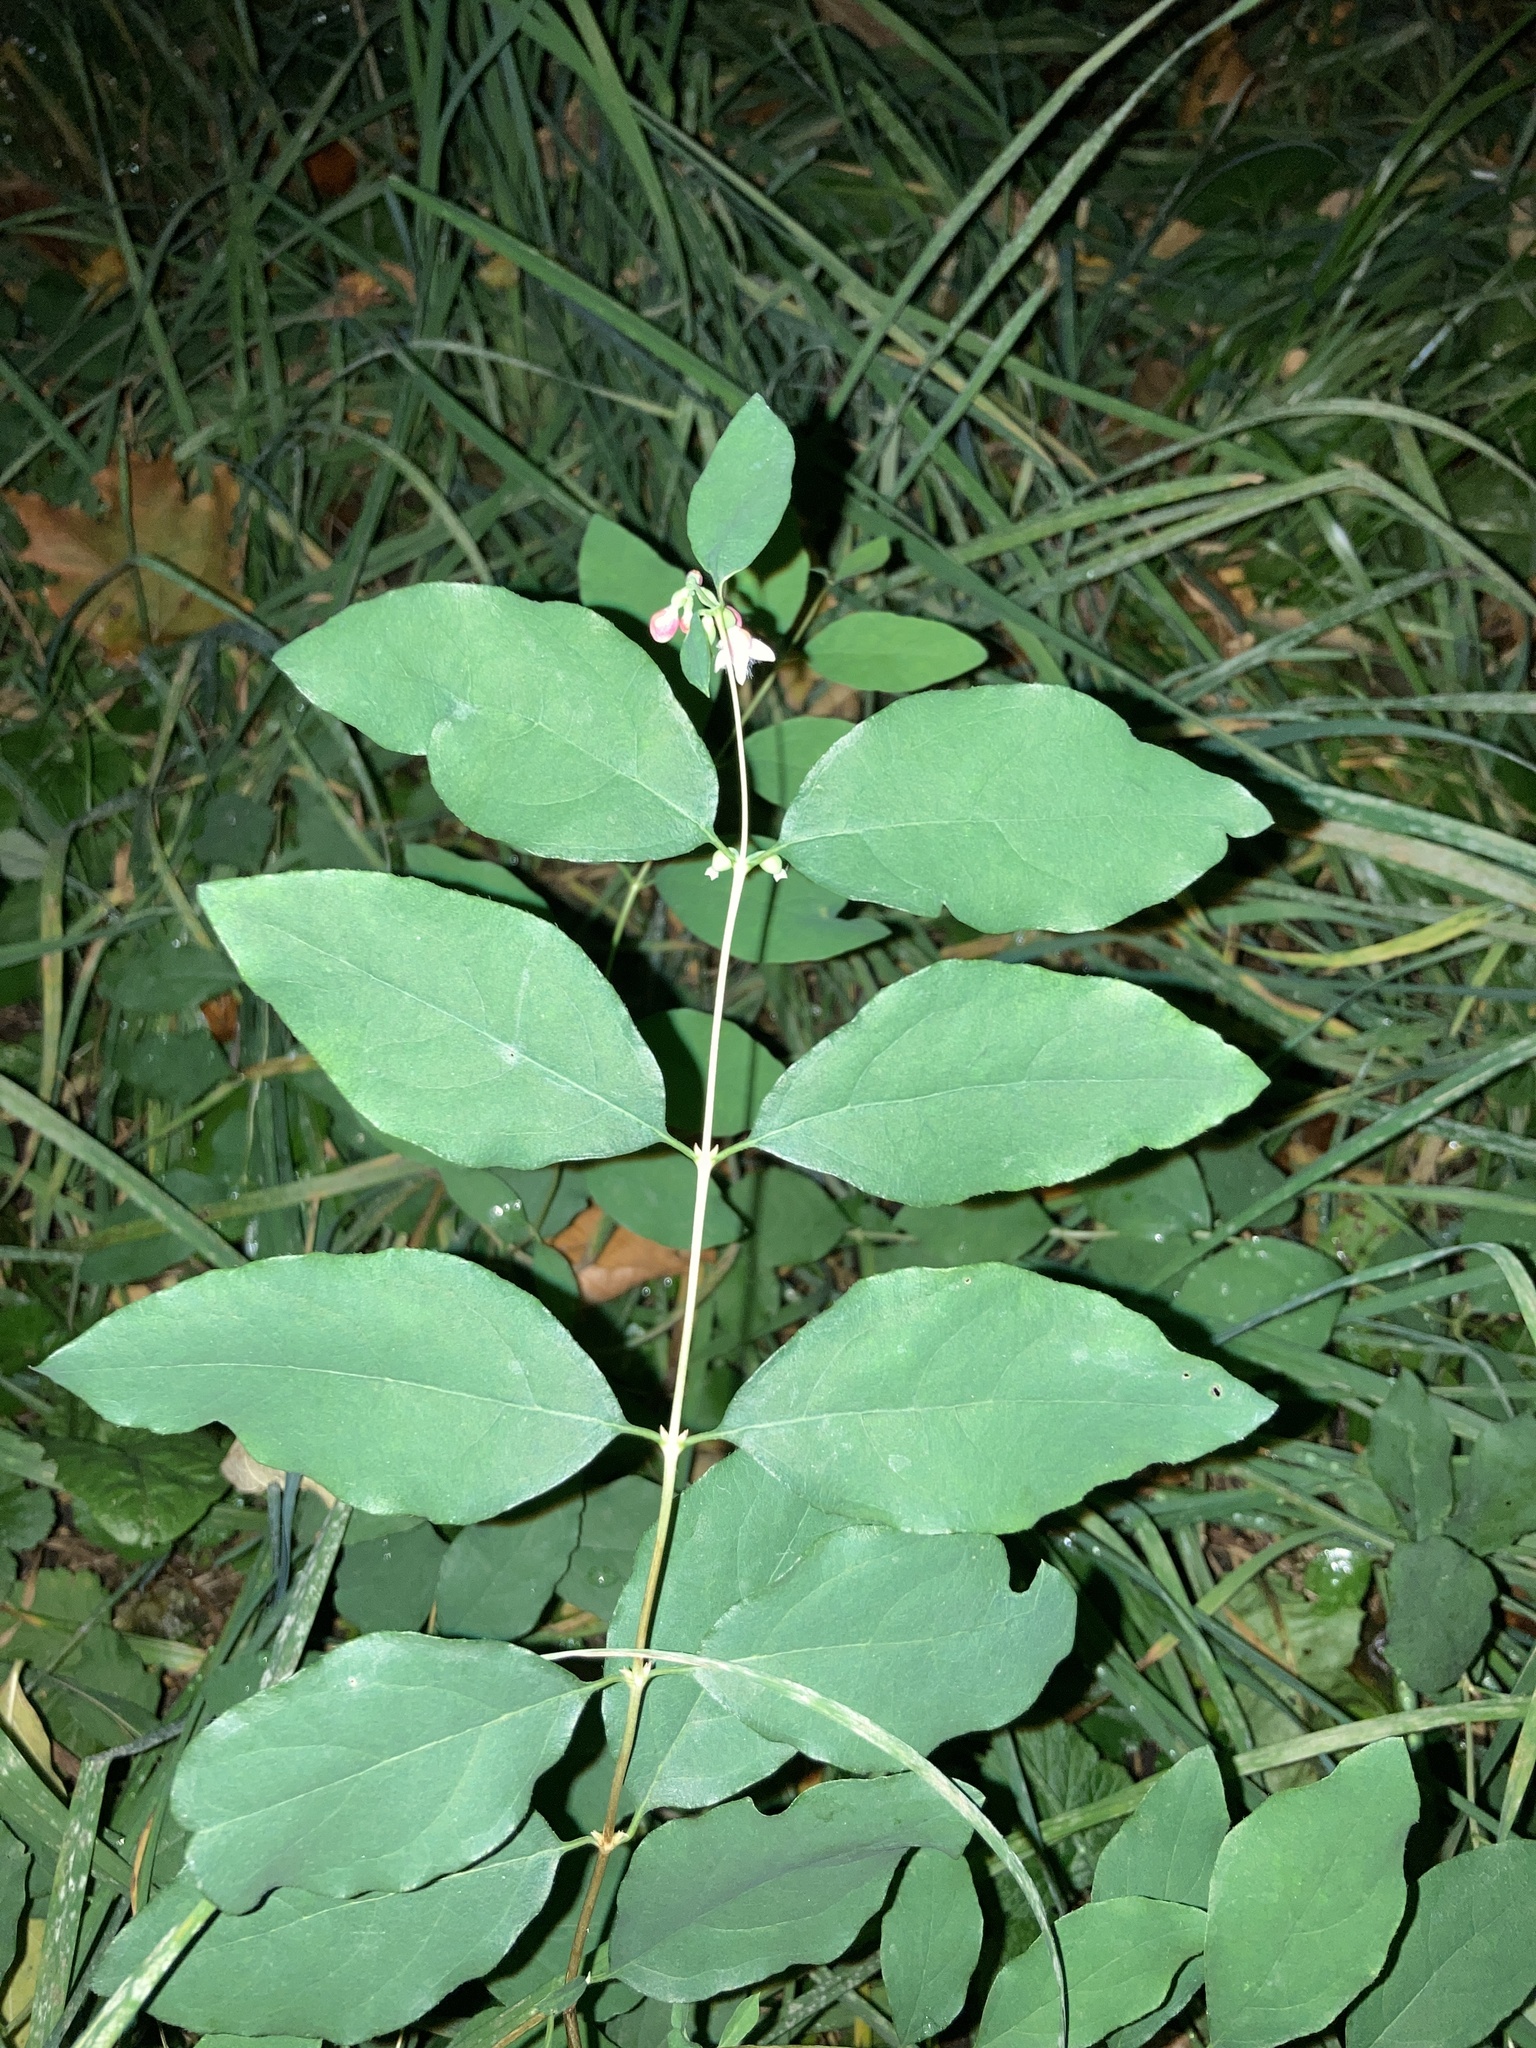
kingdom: Plantae
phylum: Tracheophyta
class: Magnoliopsida
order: Dipsacales
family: Caprifoliaceae
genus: Symphoricarpos
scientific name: Symphoricarpos albus
